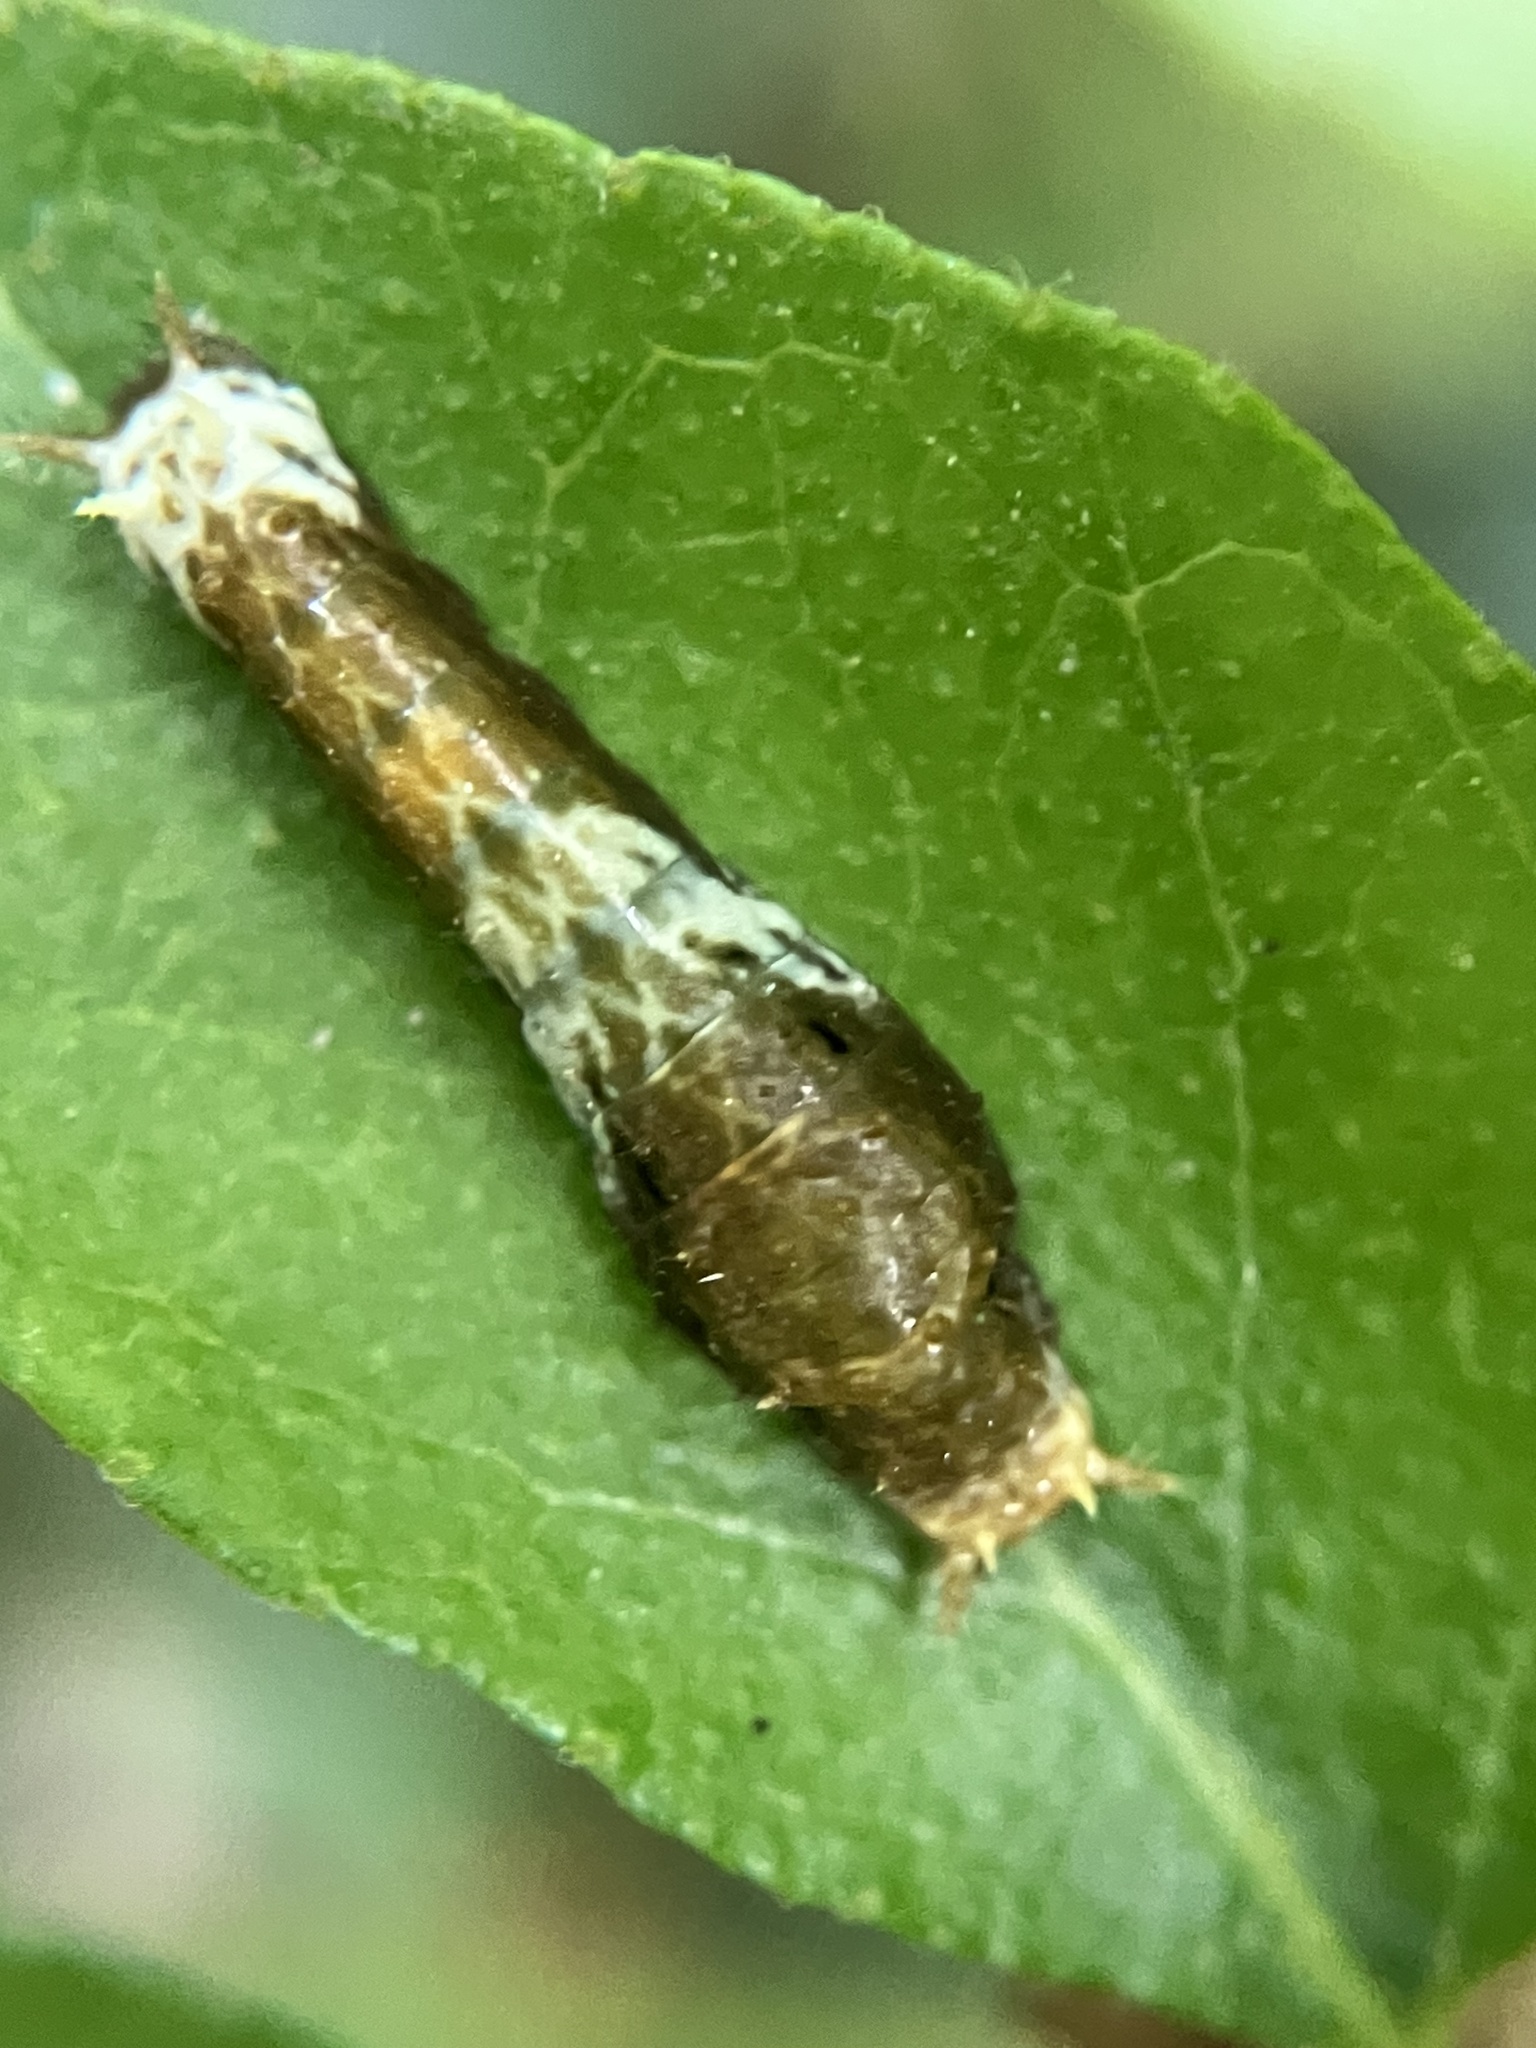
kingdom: Animalia
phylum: Arthropoda
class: Insecta
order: Lepidoptera
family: Papilionidae
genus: Papilio
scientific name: Papilio polytes
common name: Common mormon
